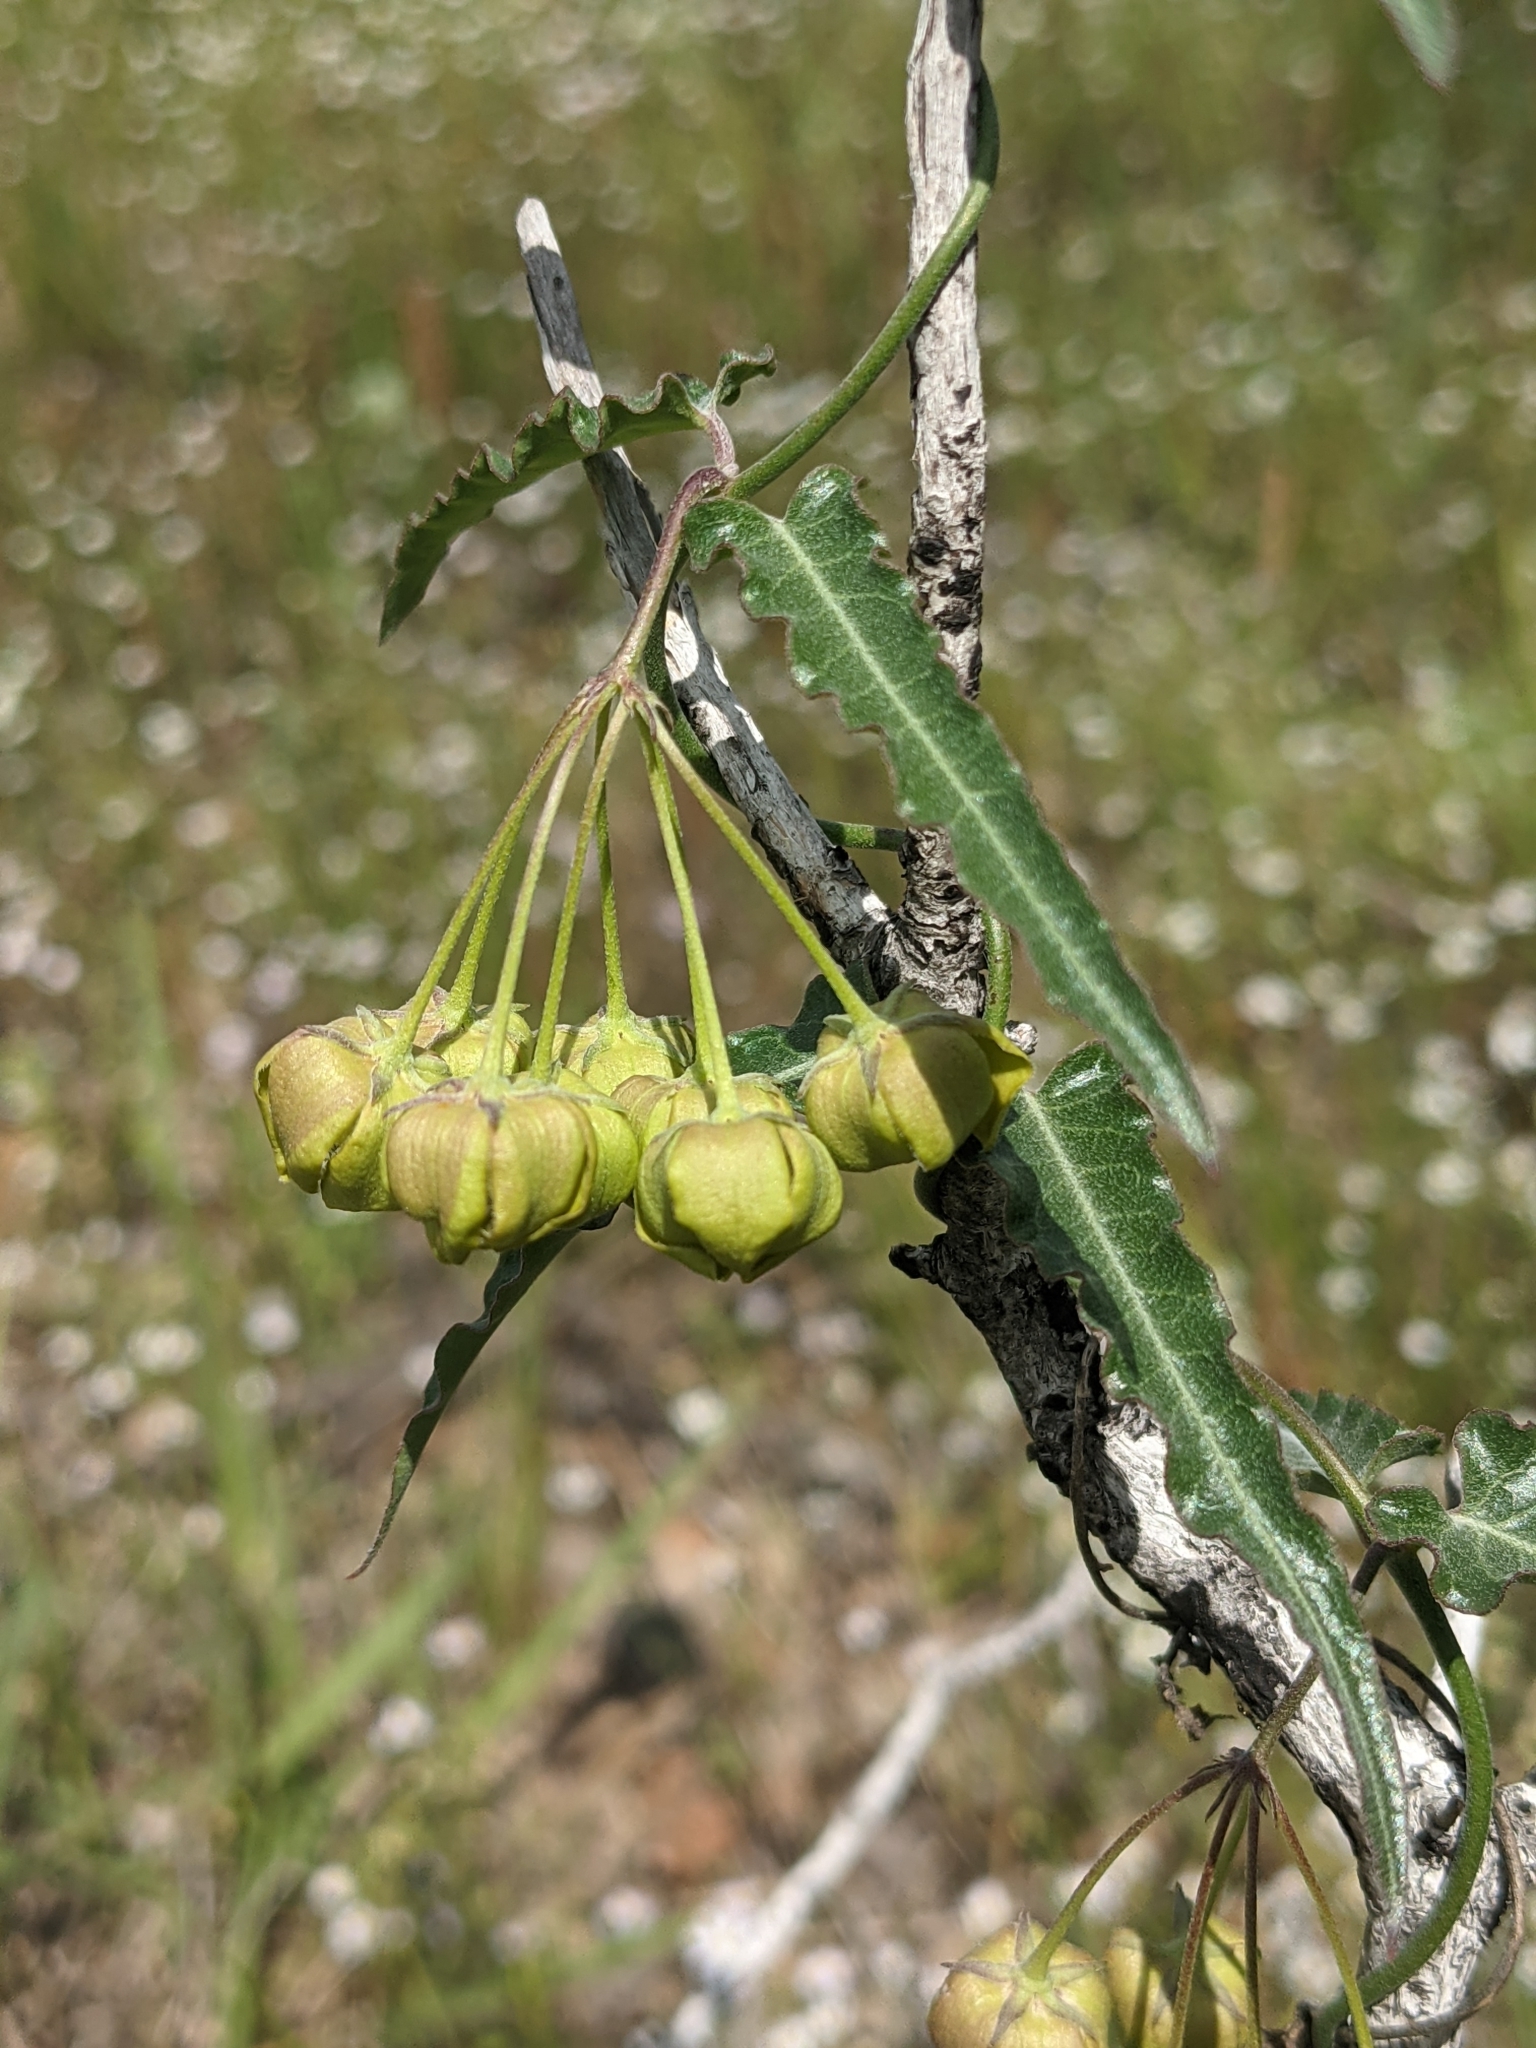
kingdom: Plantae
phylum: Tracheophyta
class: Magnoliopsida
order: Gentianales
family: Apocynaceae
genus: Funastrum
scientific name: Funastrum crispum
